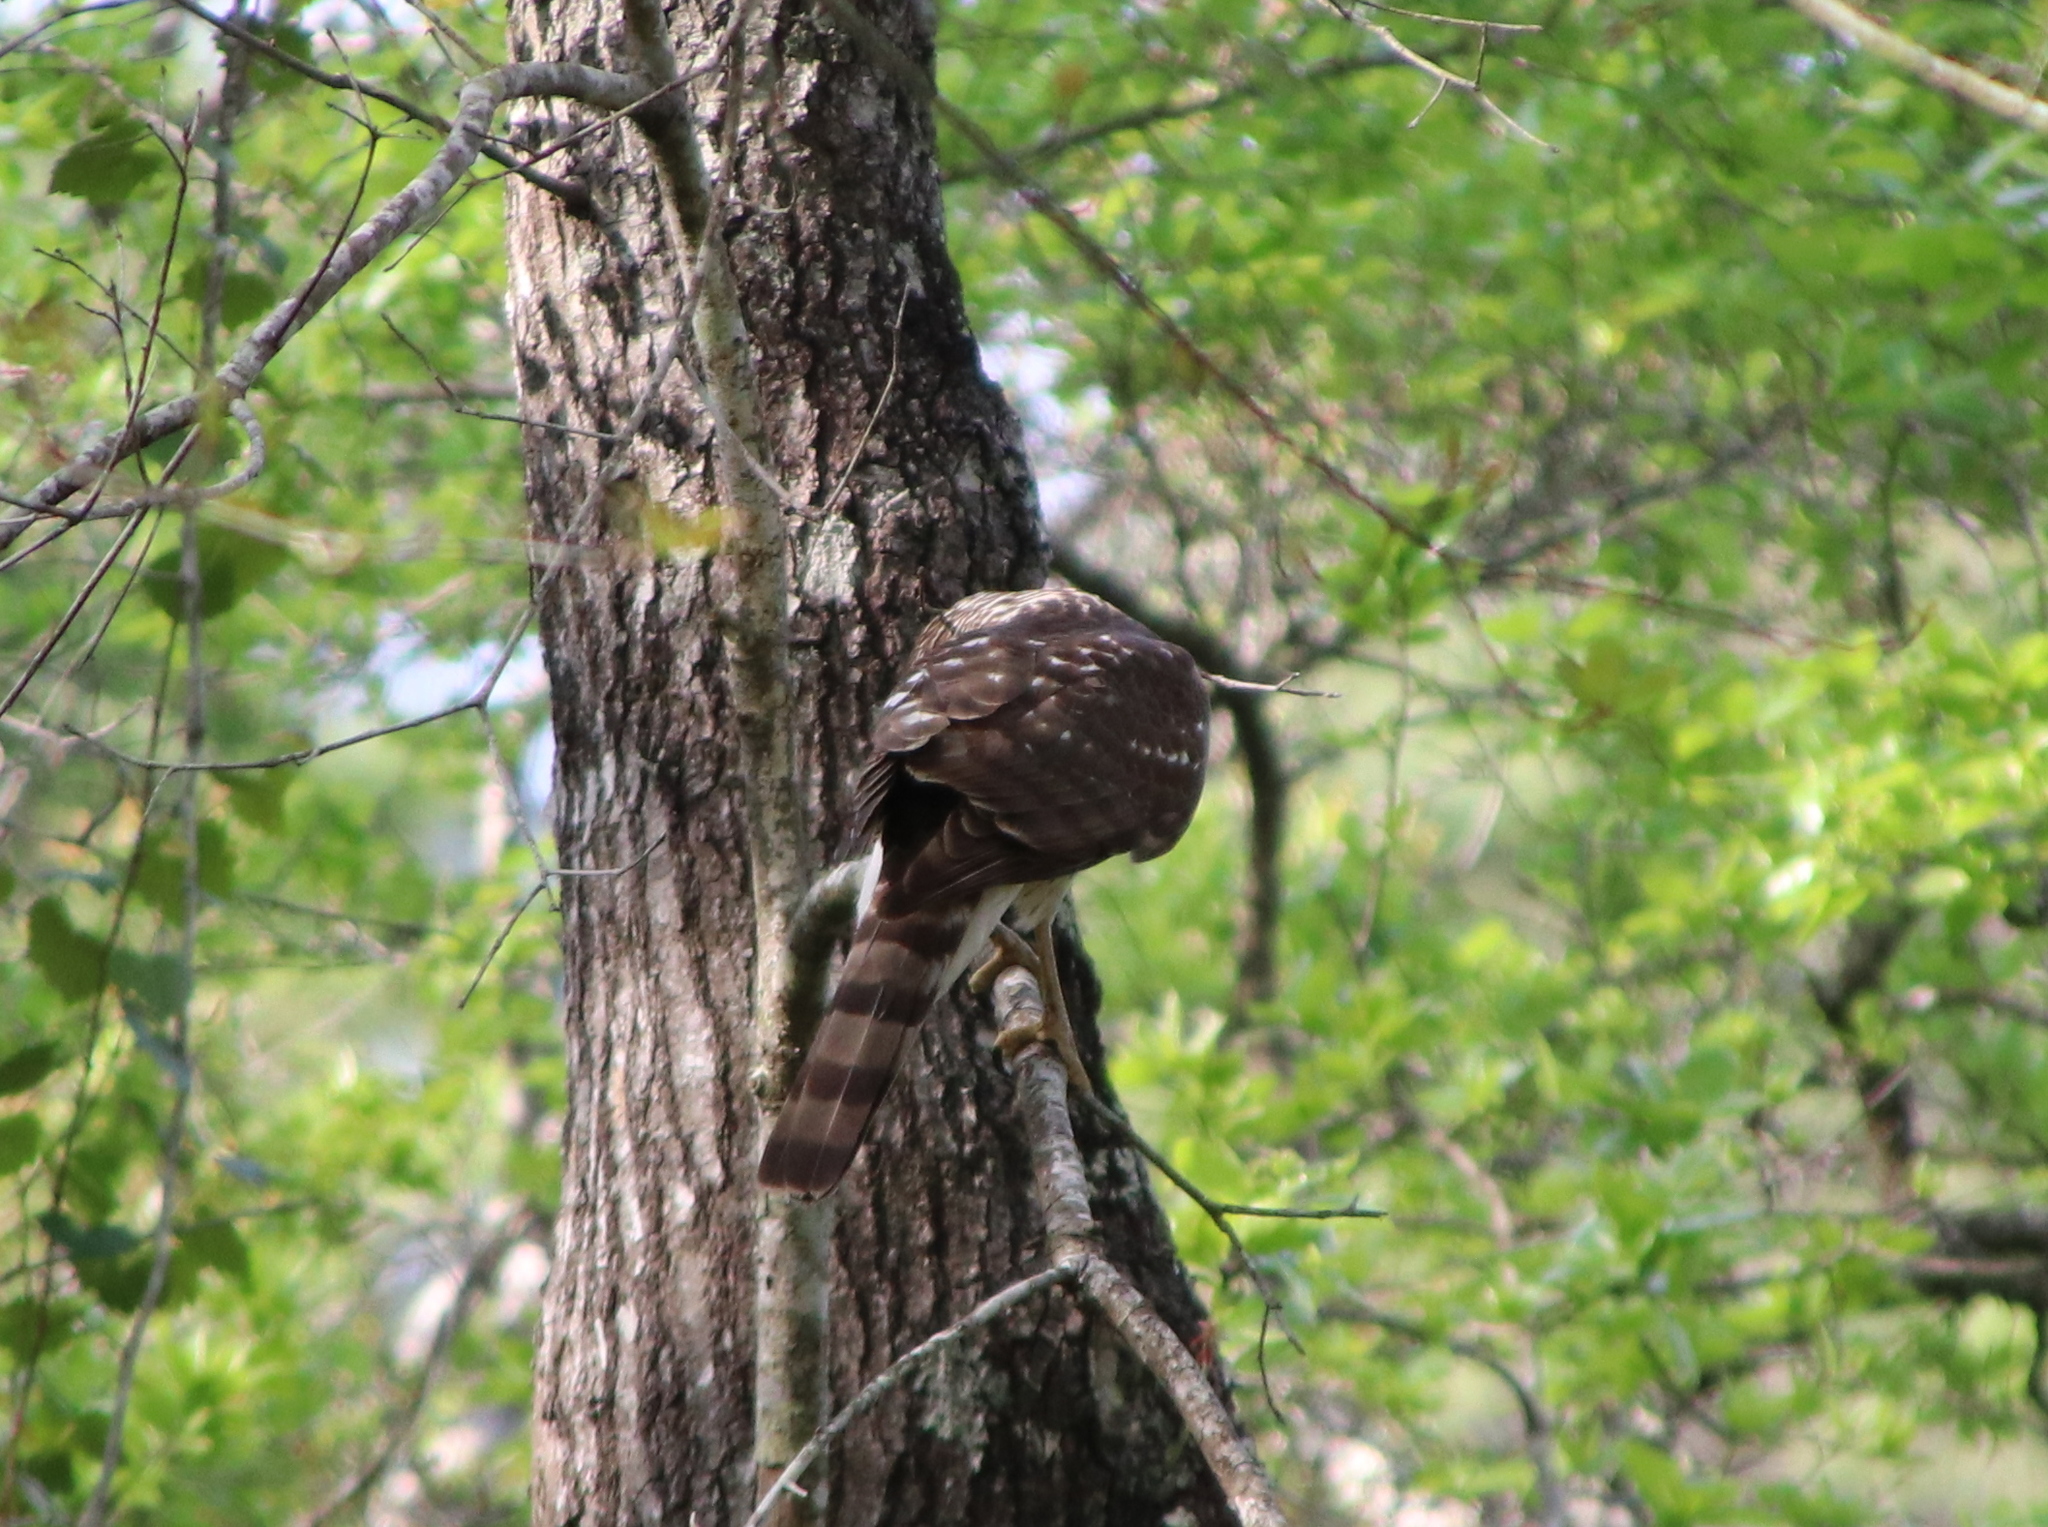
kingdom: Animalia
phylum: Chordata
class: Aves
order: Accipitriformes
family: Accipitridae
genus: Accipiter
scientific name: Accipiter cooperii
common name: Cooper's hawk
